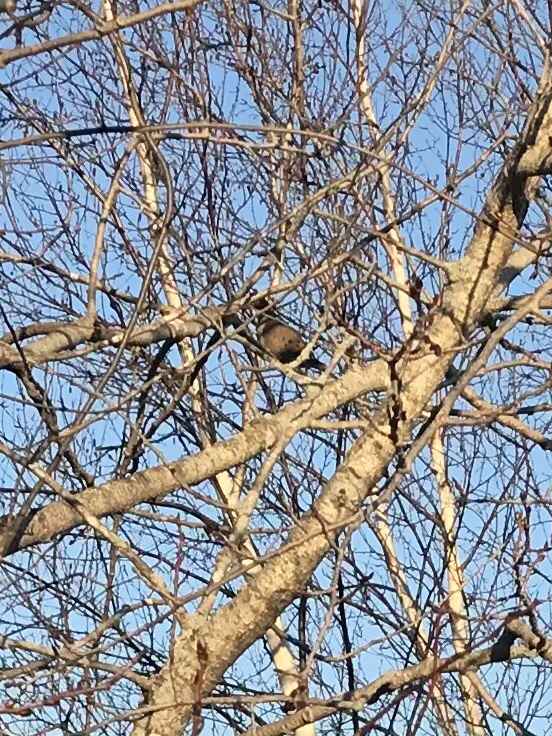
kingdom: Animalia
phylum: Chordata
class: Aves
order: Columbiformes
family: Columbidae
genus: Zenaida
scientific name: Zenaida macroura
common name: Mourning dove
